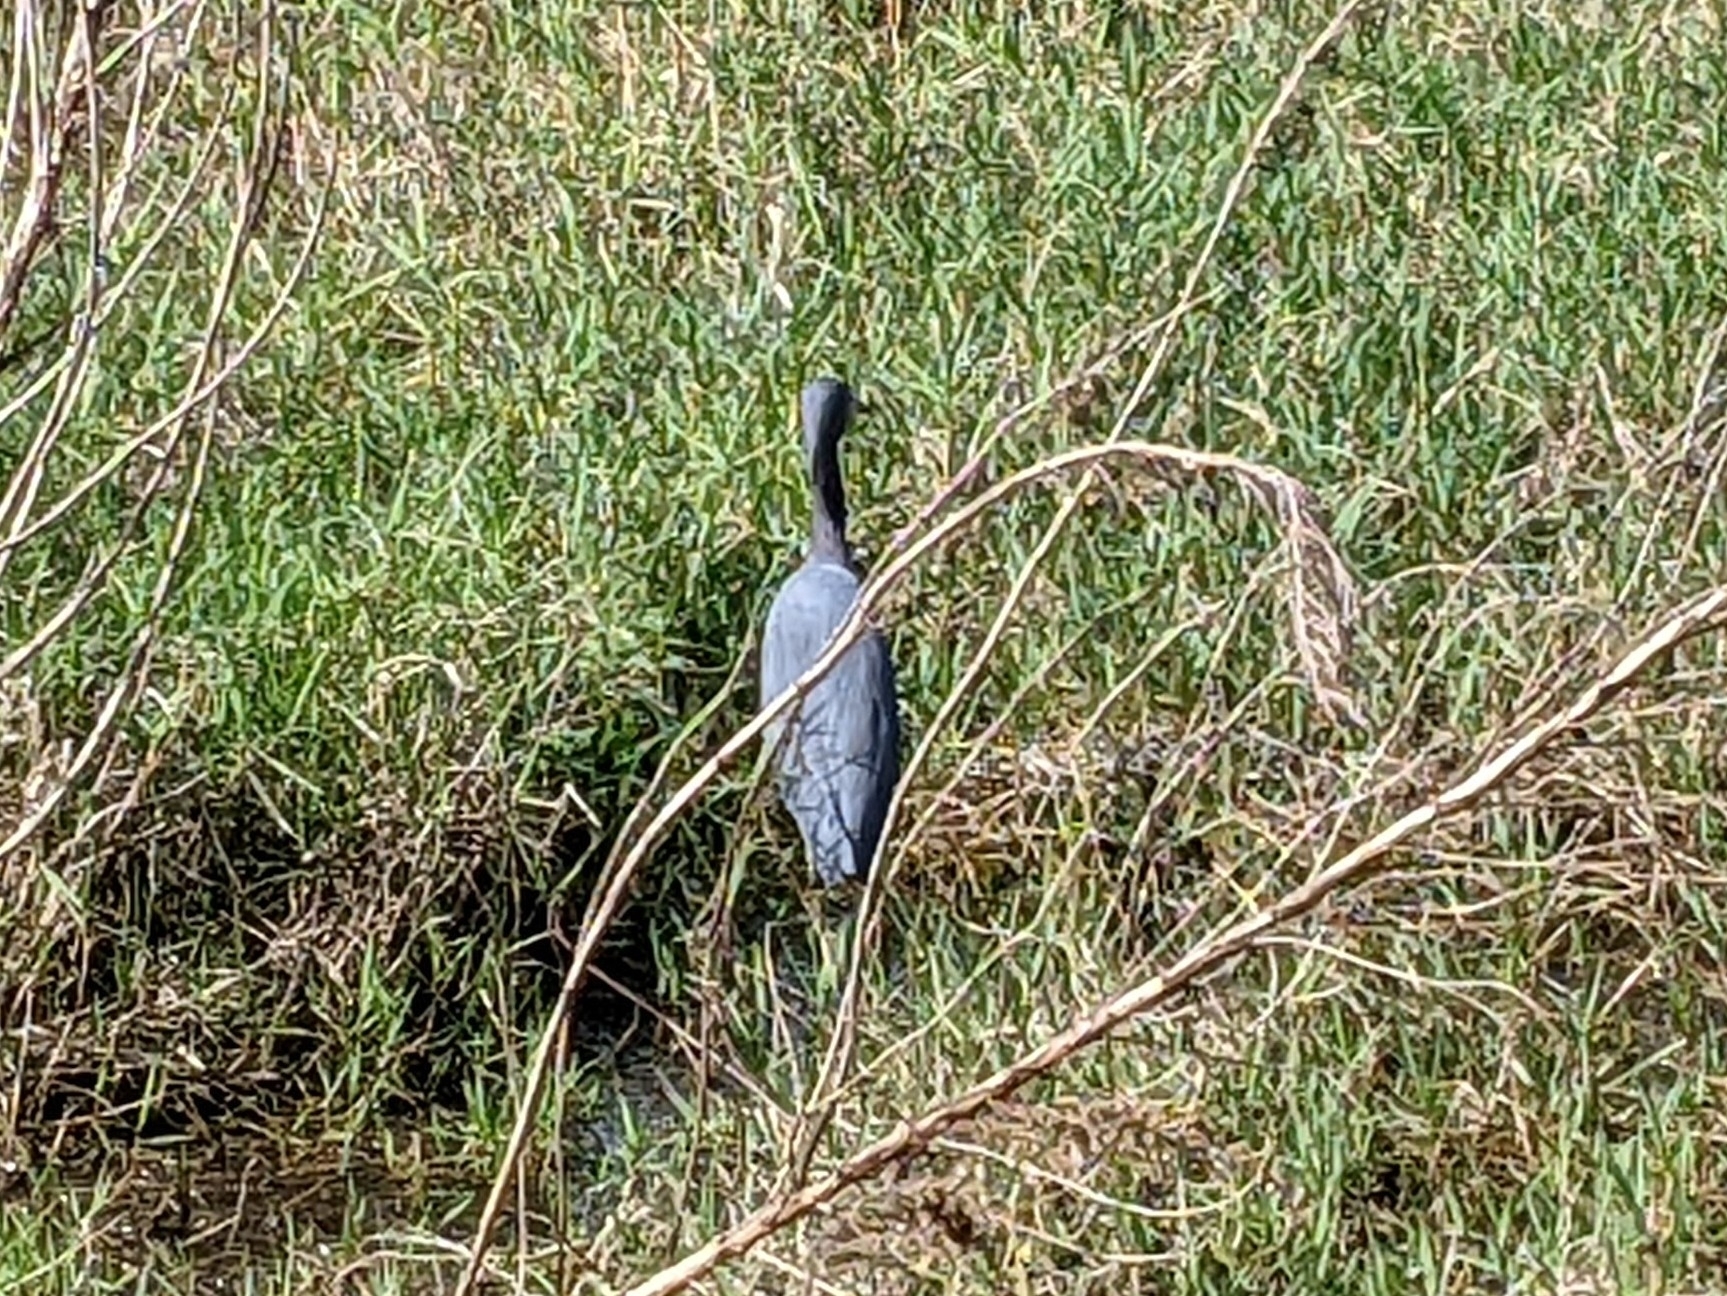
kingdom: Animalia
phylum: Chordata
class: Aves
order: Pelecaniformes
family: Ardeidae
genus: Egretta
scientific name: Egretta caerulea
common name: Little blue heron
